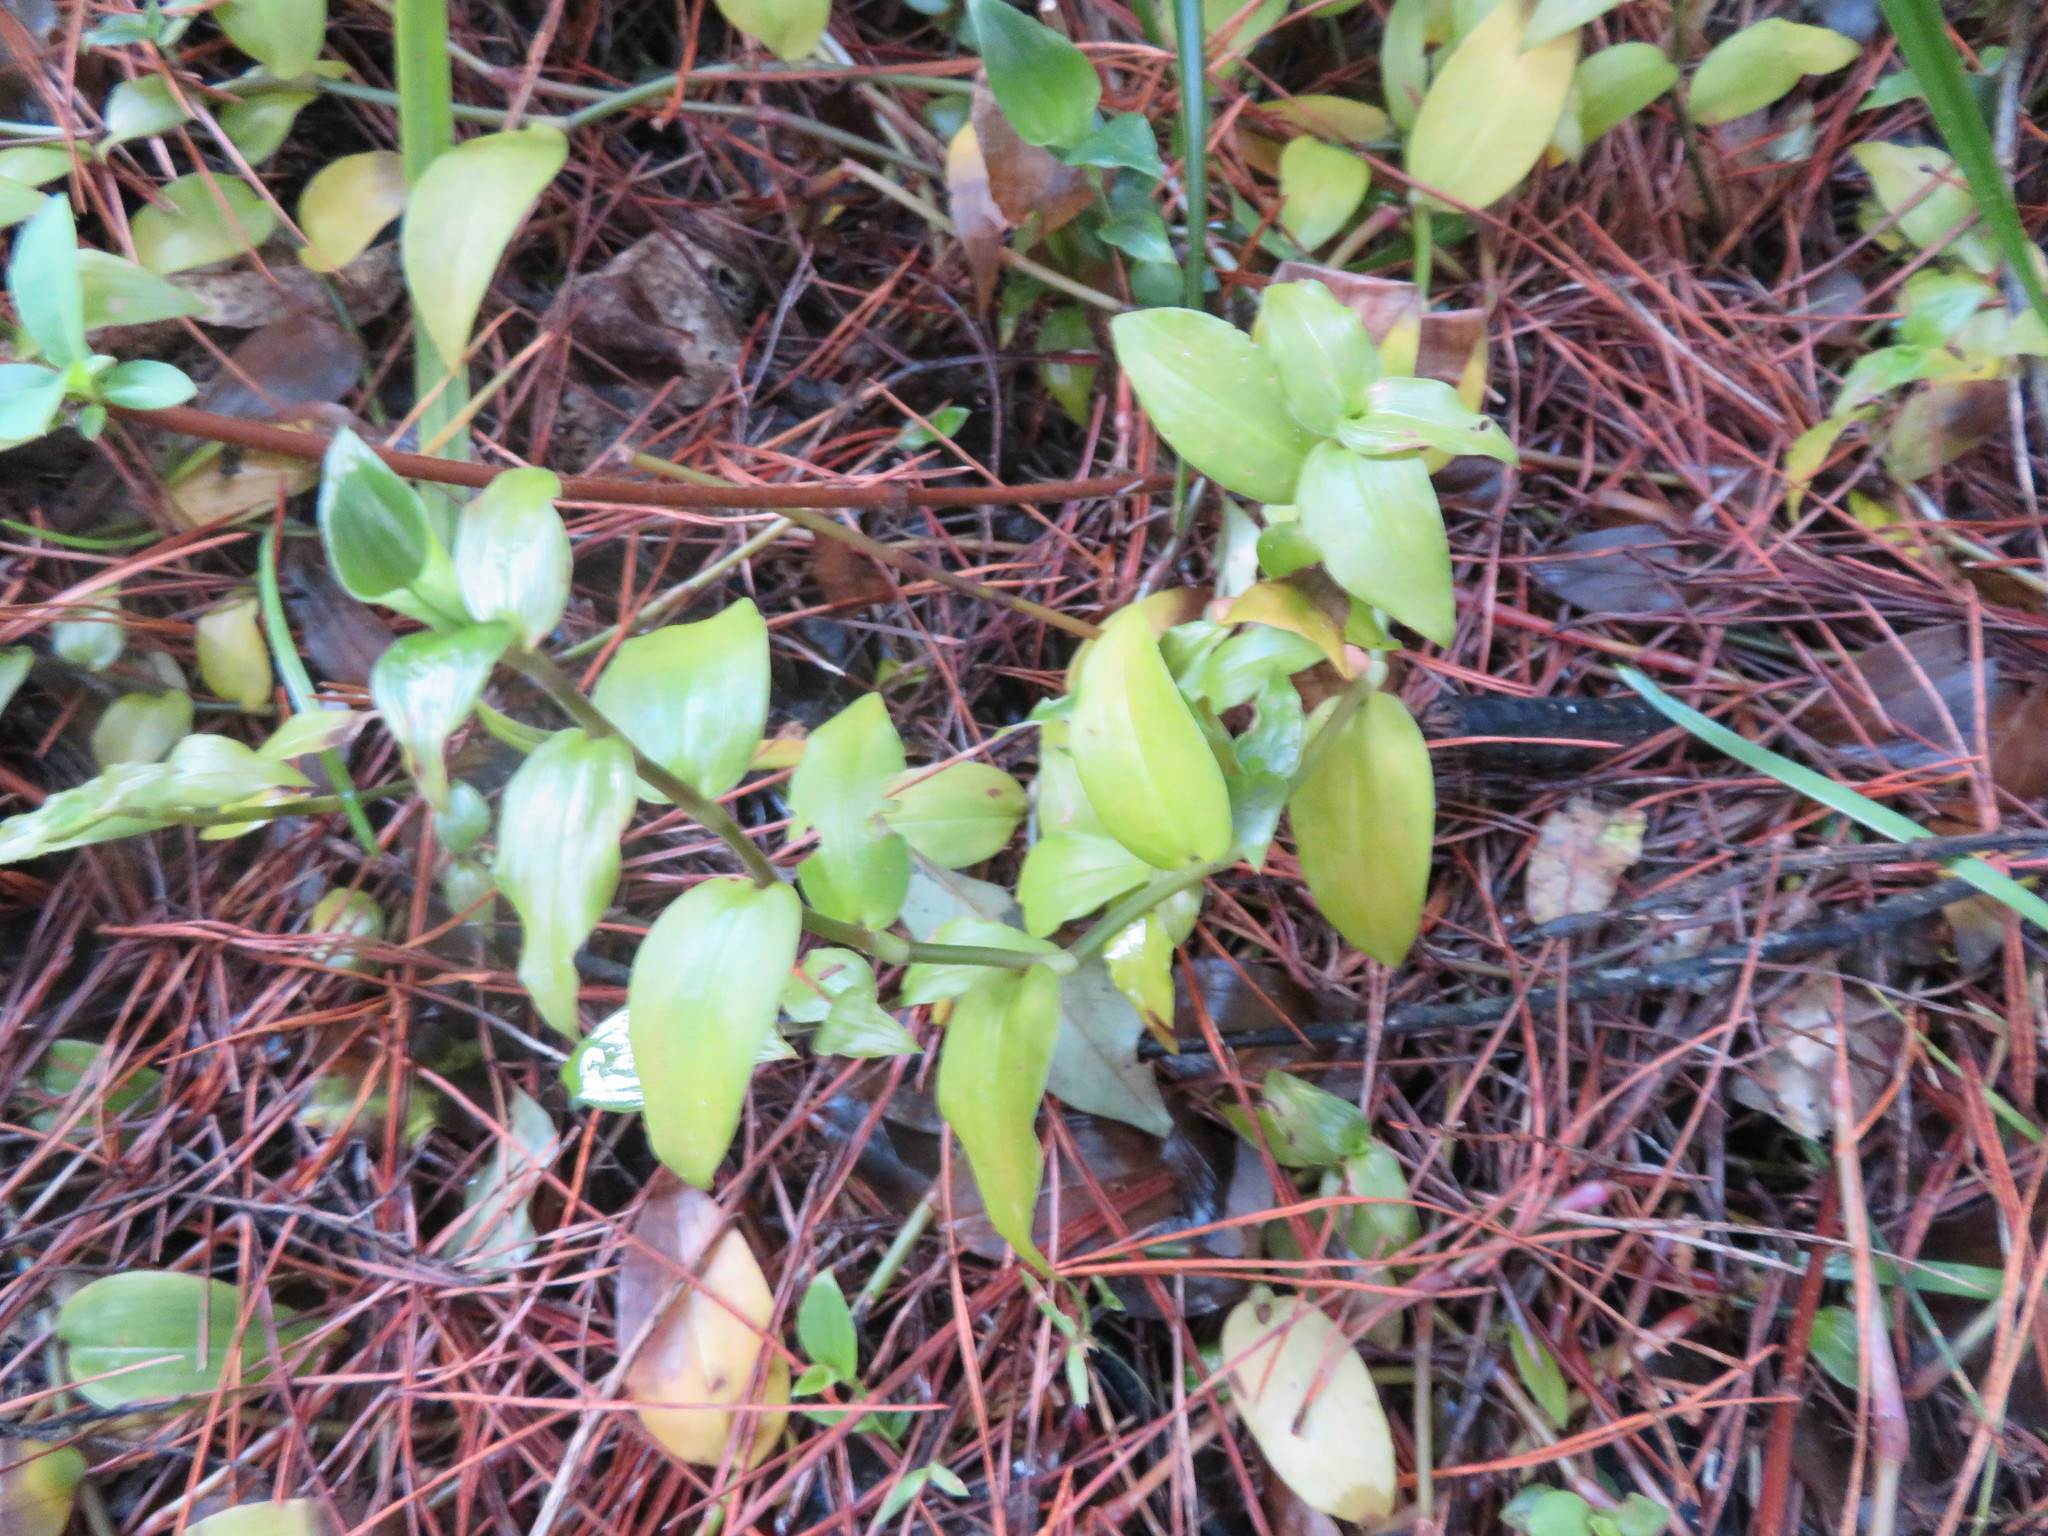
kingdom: Plantae
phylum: Tracheophyta
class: Liliopsida
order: Commelinales
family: Commelinaceae
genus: Tradescantia
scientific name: Tradescantia fluminensis
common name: Wandering-jew
